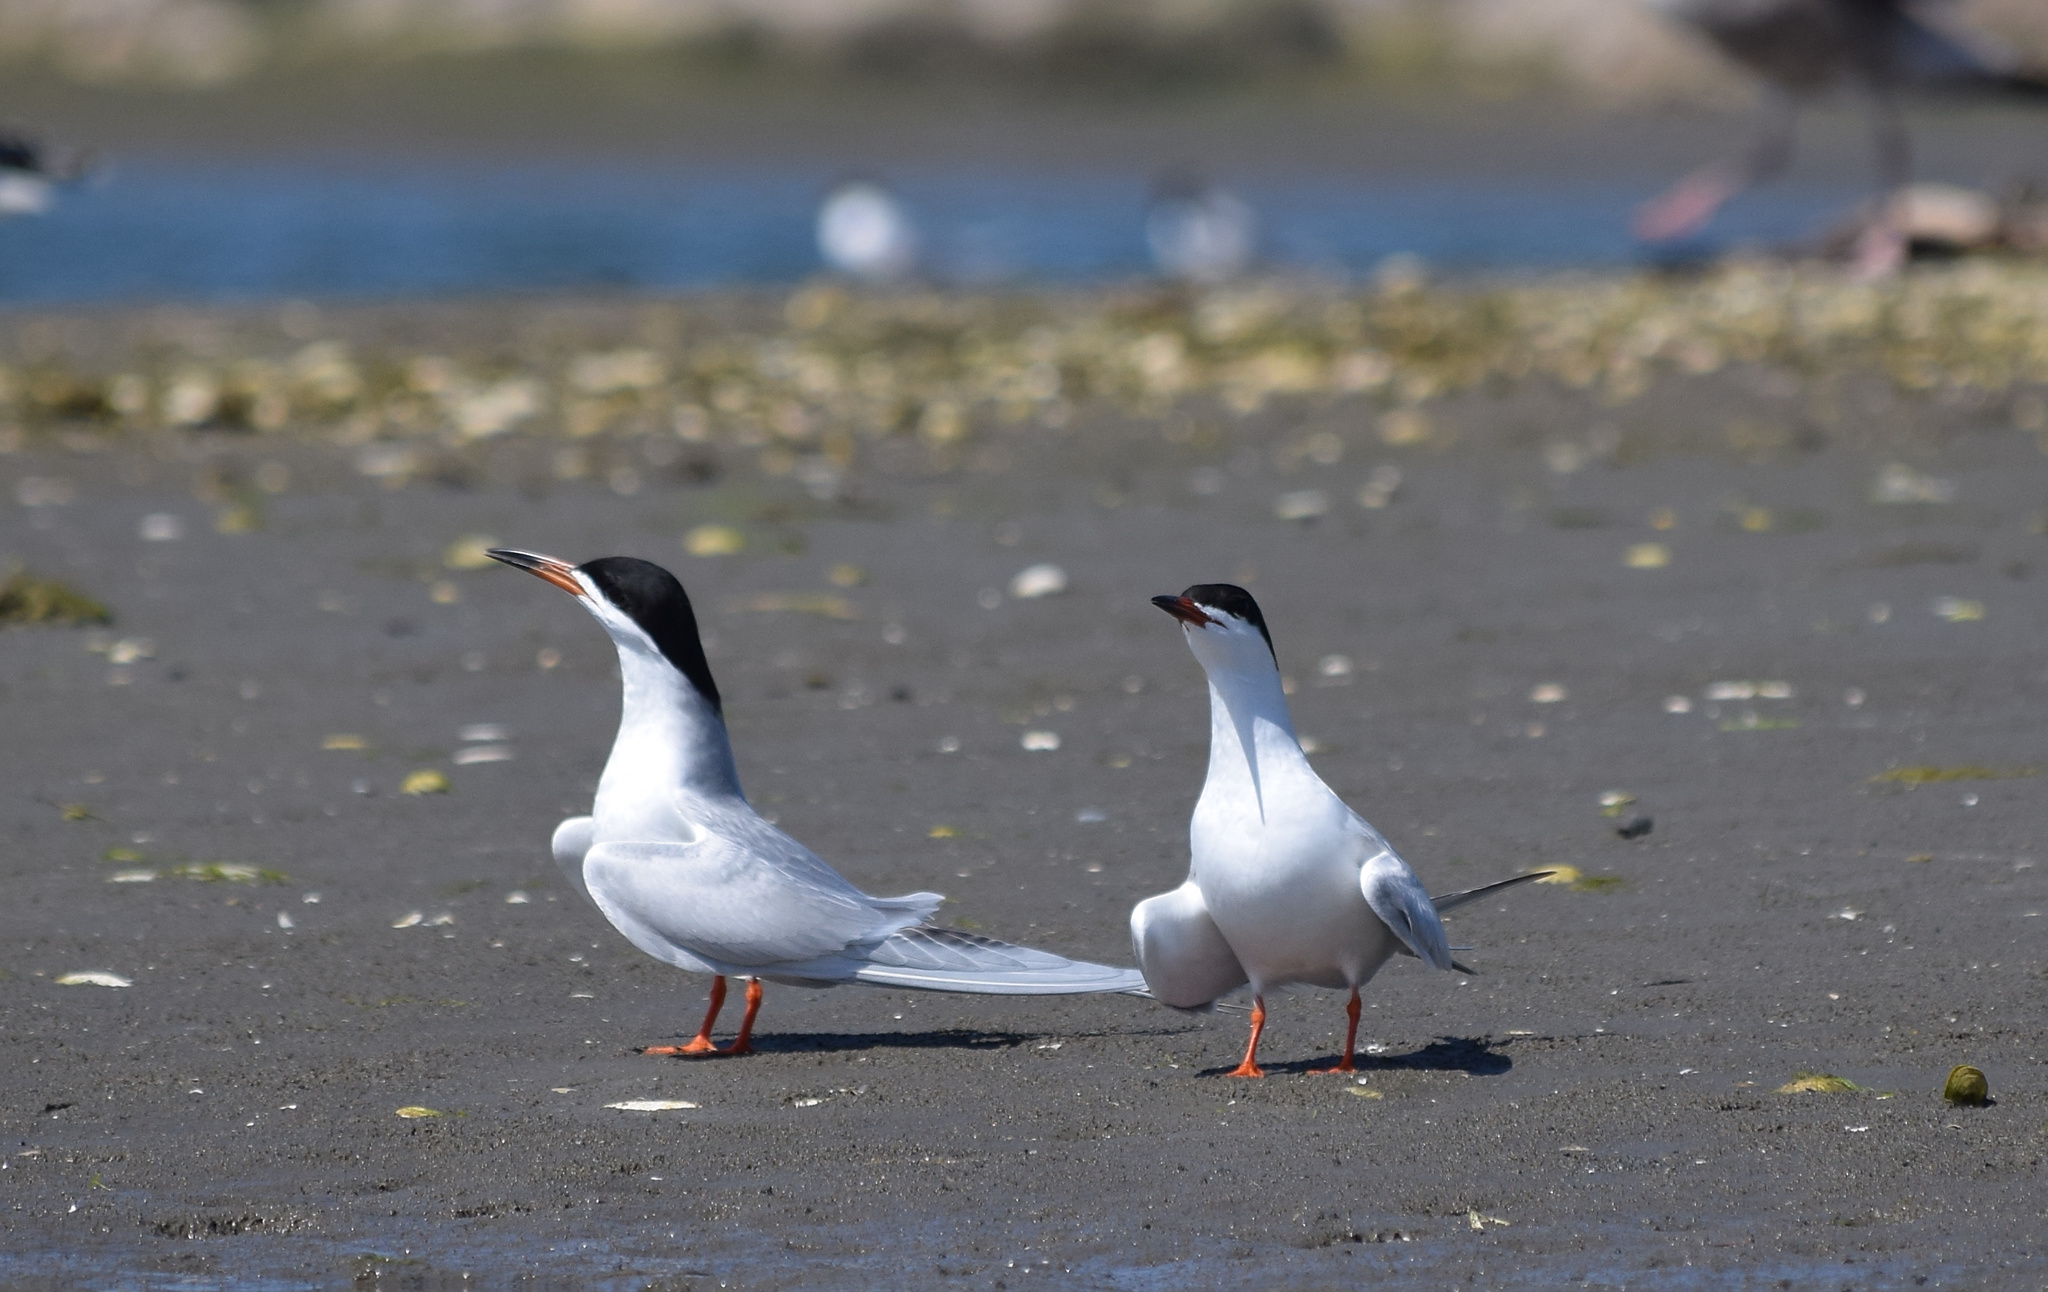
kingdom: Animalia
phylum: Chordata
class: Aves
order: Charadriiformes
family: Laridae
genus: Sterna
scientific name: Sterna forsteri
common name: Forster's tern
